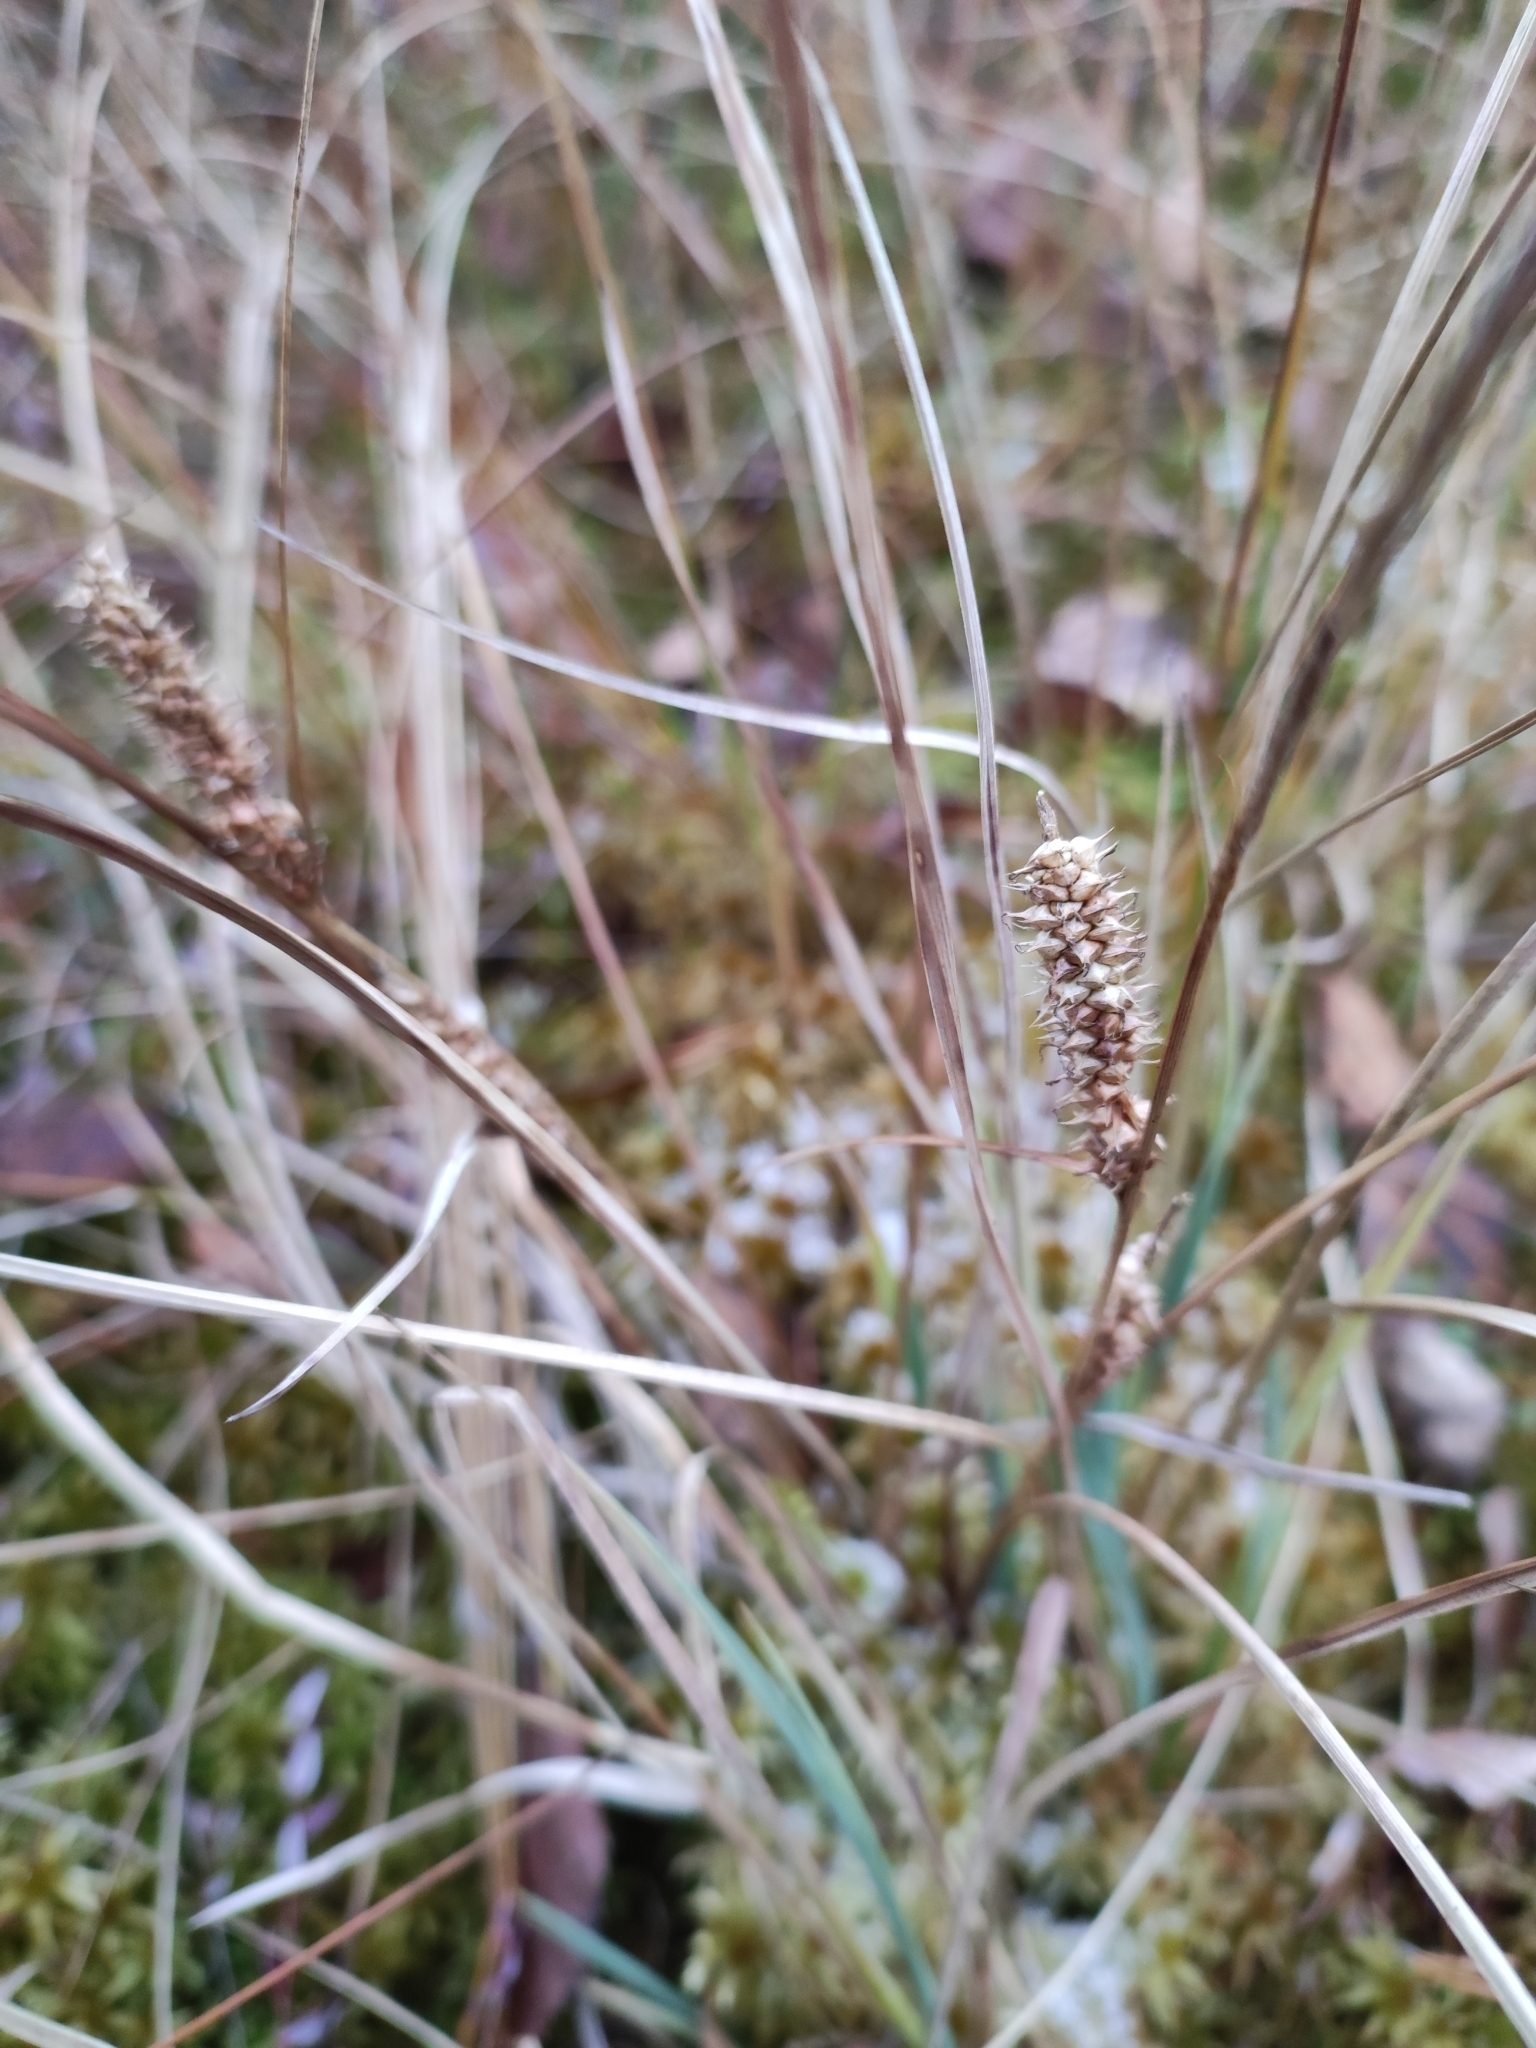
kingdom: Plantae
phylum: Tracheophyta
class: Liliopsida
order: Poales
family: Cyperaceae
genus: Carex
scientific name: Carex rostrata
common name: Bottle sedge
